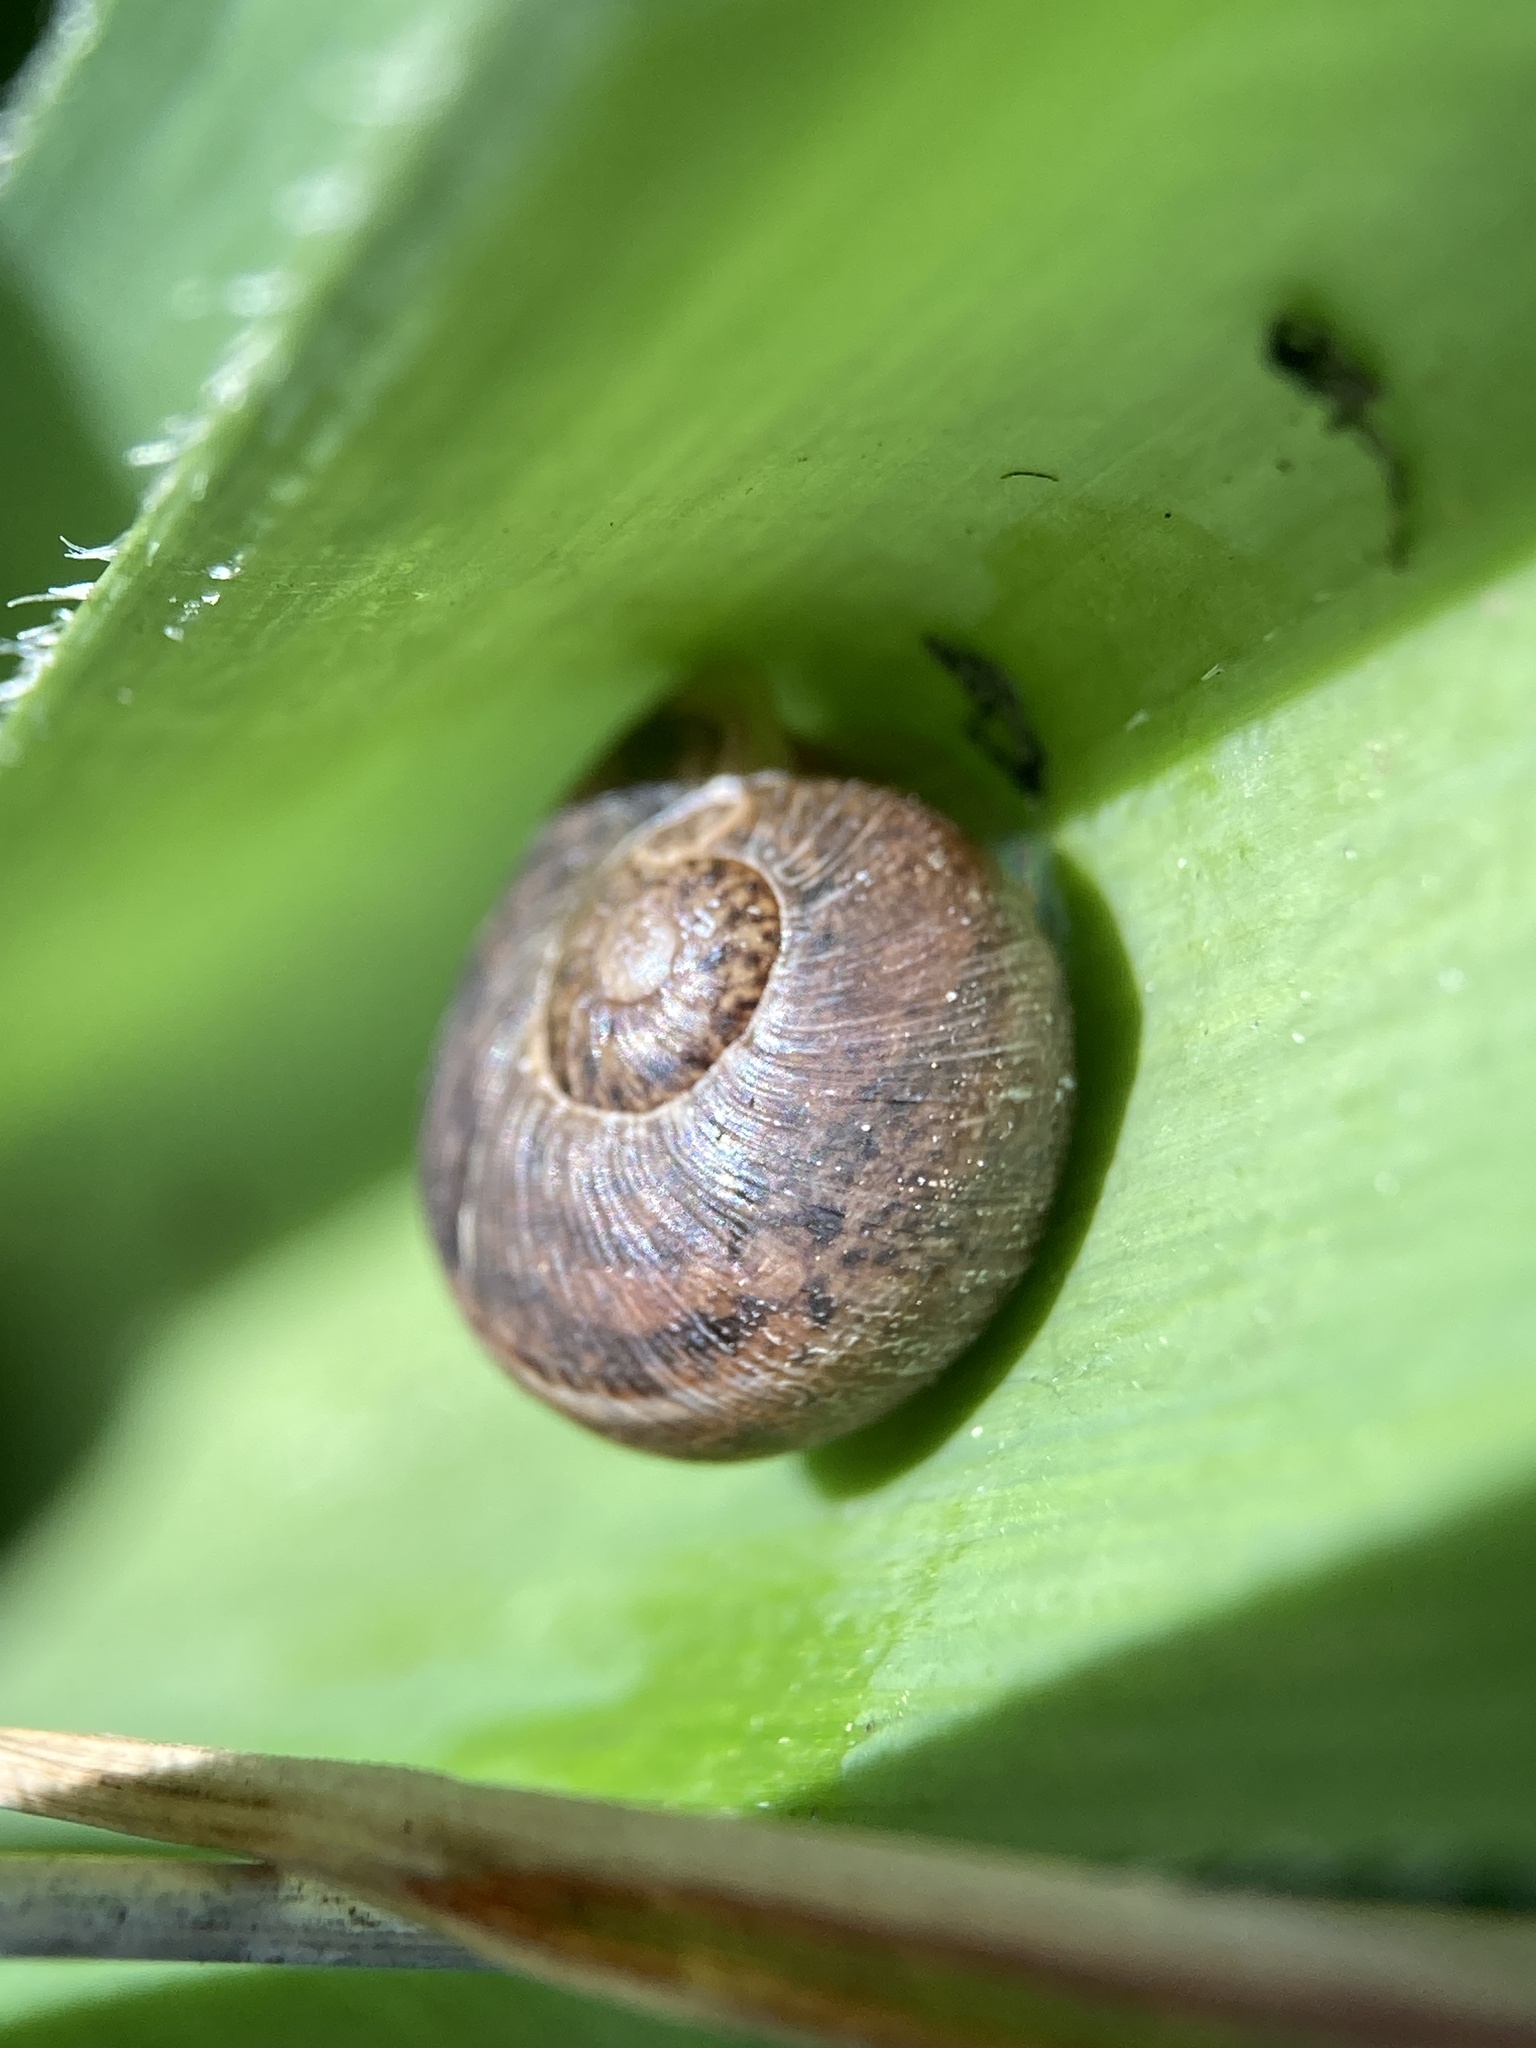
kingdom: Animalia
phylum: Mollusca
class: Gastropoda
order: Stylommatophora
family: Helicidae
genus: Cornu
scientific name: Cornu aspersum
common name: Brown garden snail
